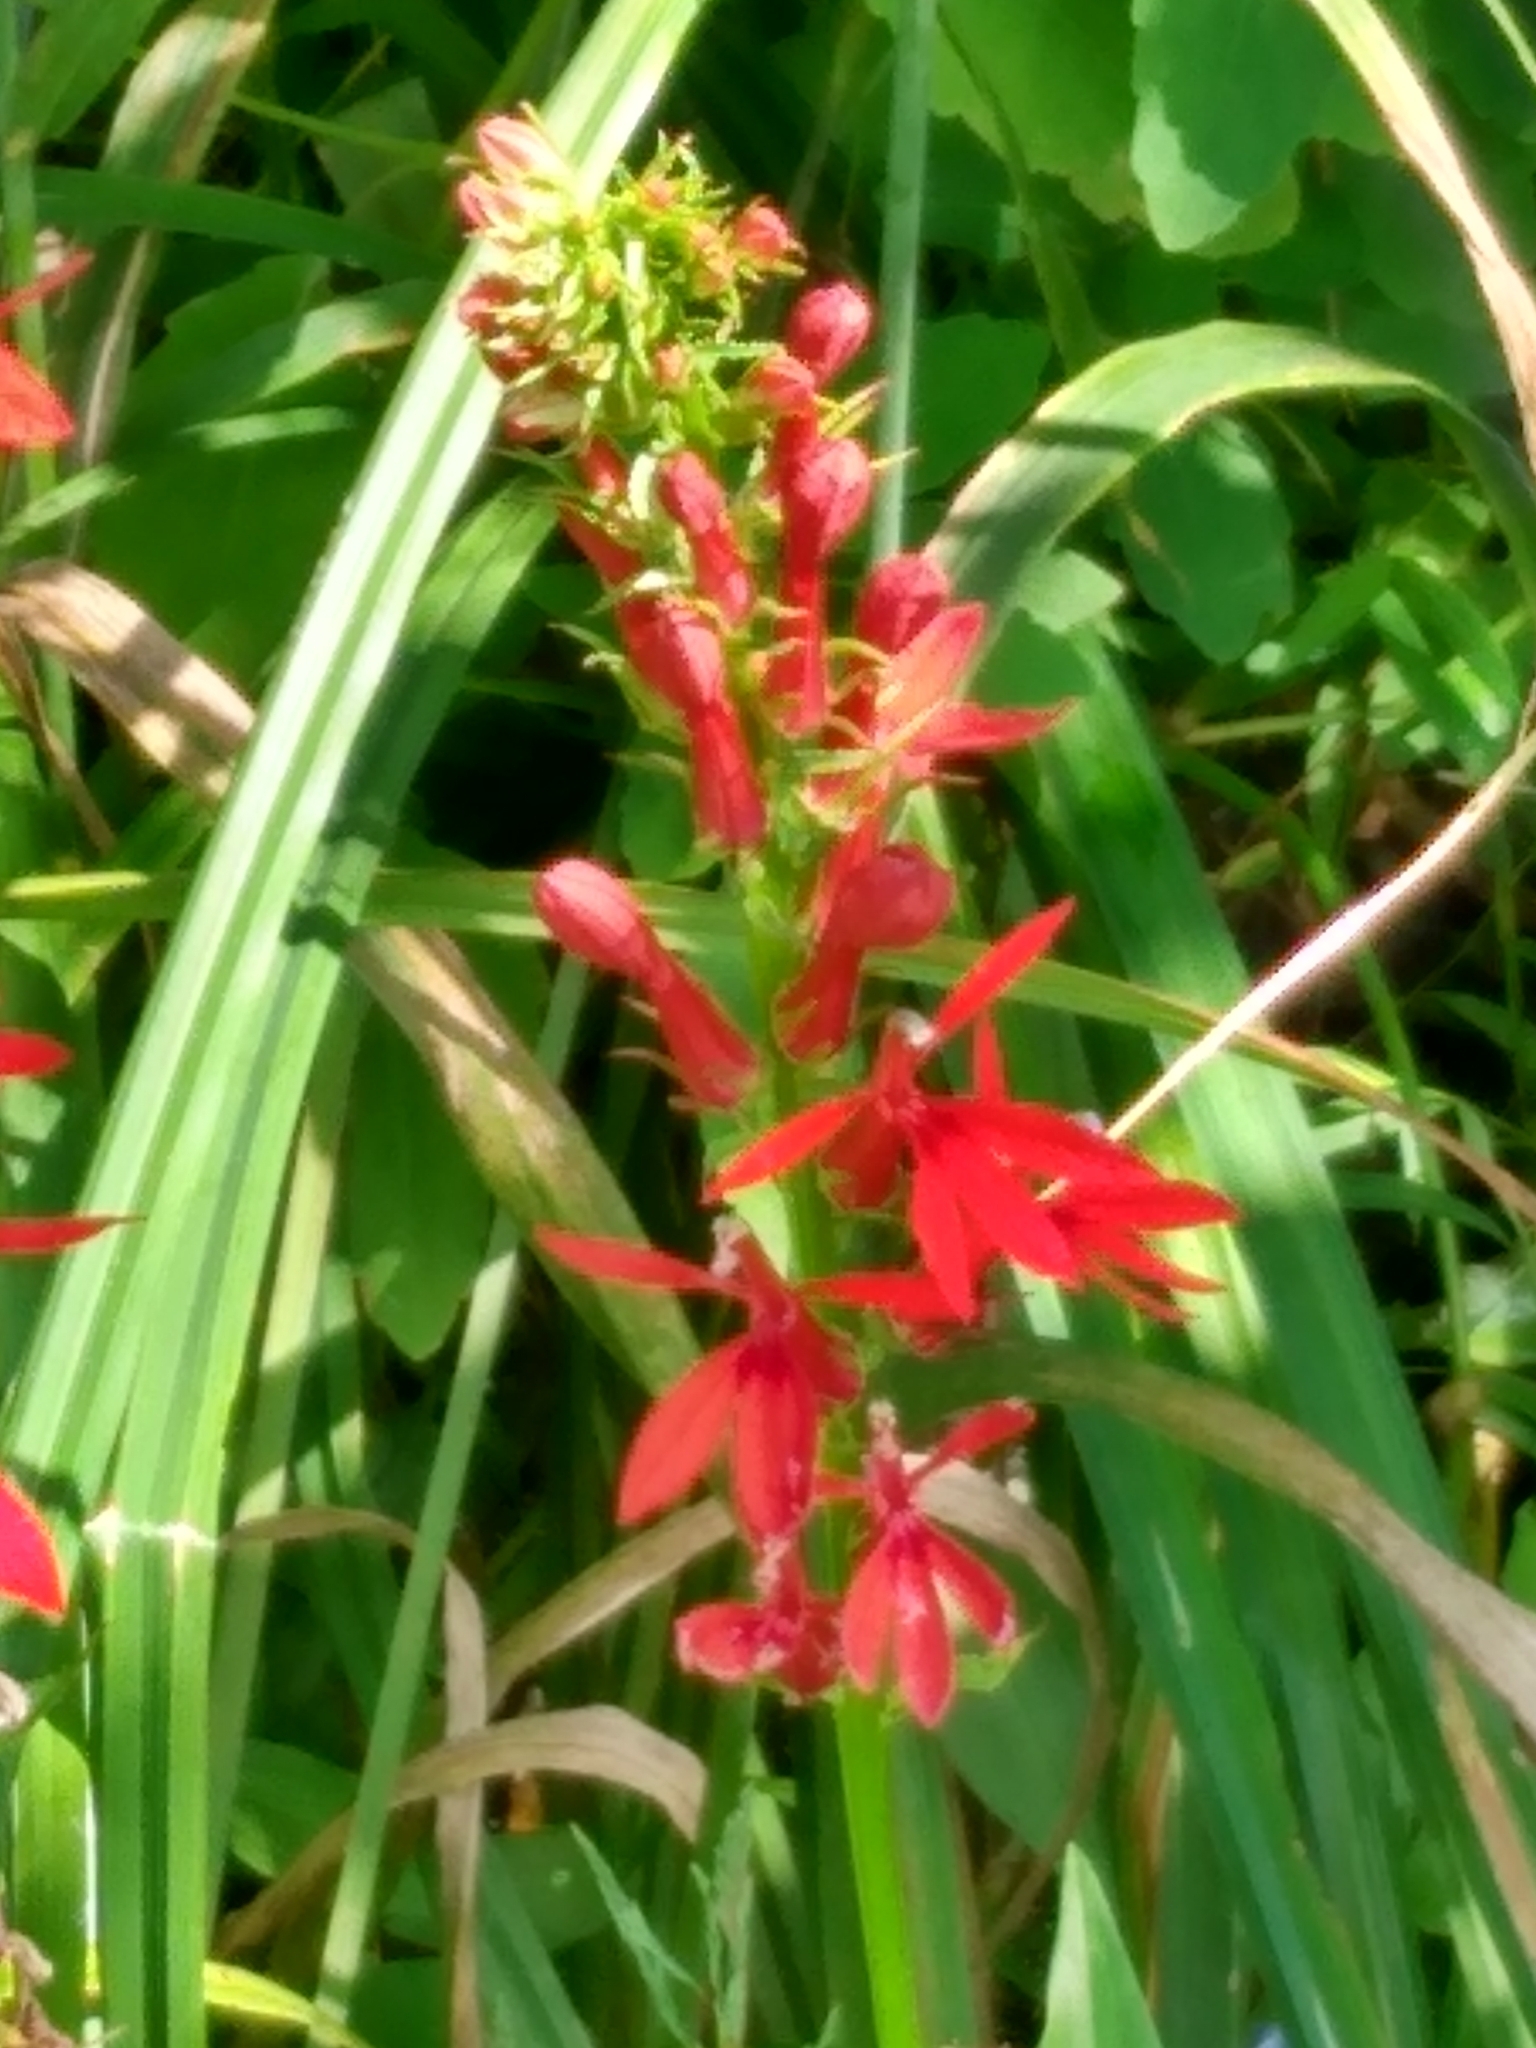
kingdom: Plantae
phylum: Tracheophyta
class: Magnoliopsida
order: Asterales
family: Campanulaceae
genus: Lobelia
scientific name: Lobelia cardinalis
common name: Cardinal flower
